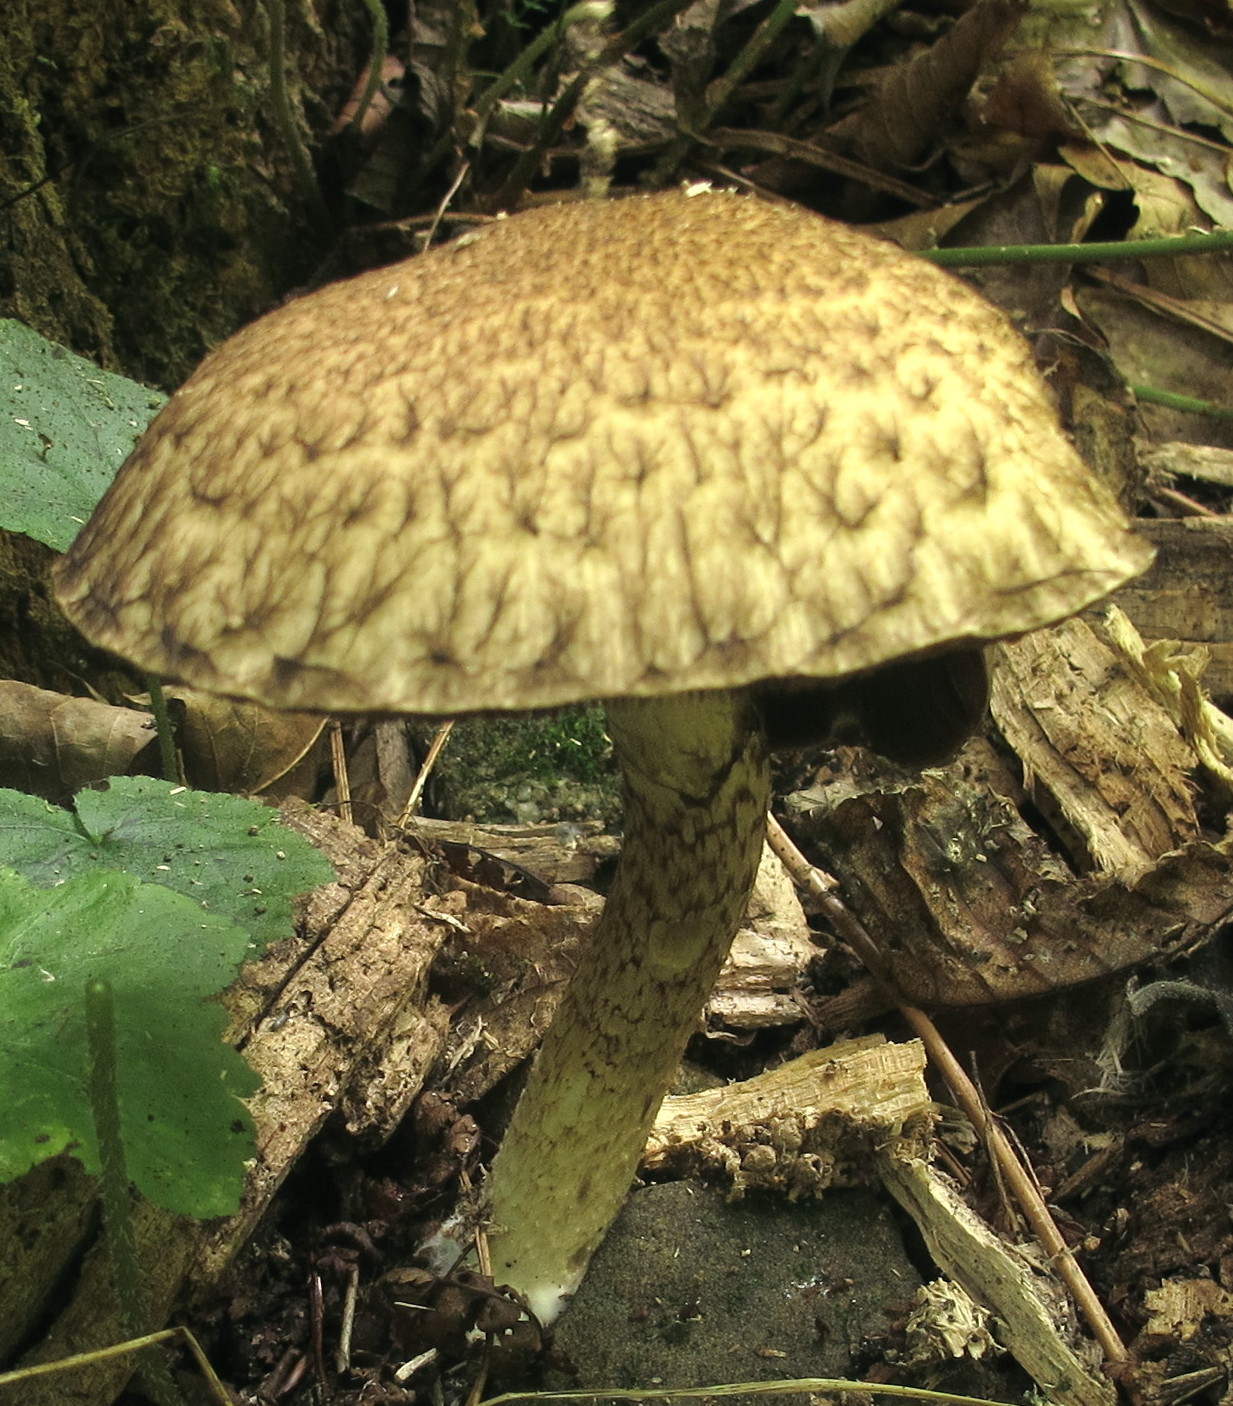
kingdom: Fungi
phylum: Basidiomycota
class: Agaricomycetes
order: Agaricales
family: Psathyrellaceae
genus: Lacrymaria
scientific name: Lacrymaria echiniceps
